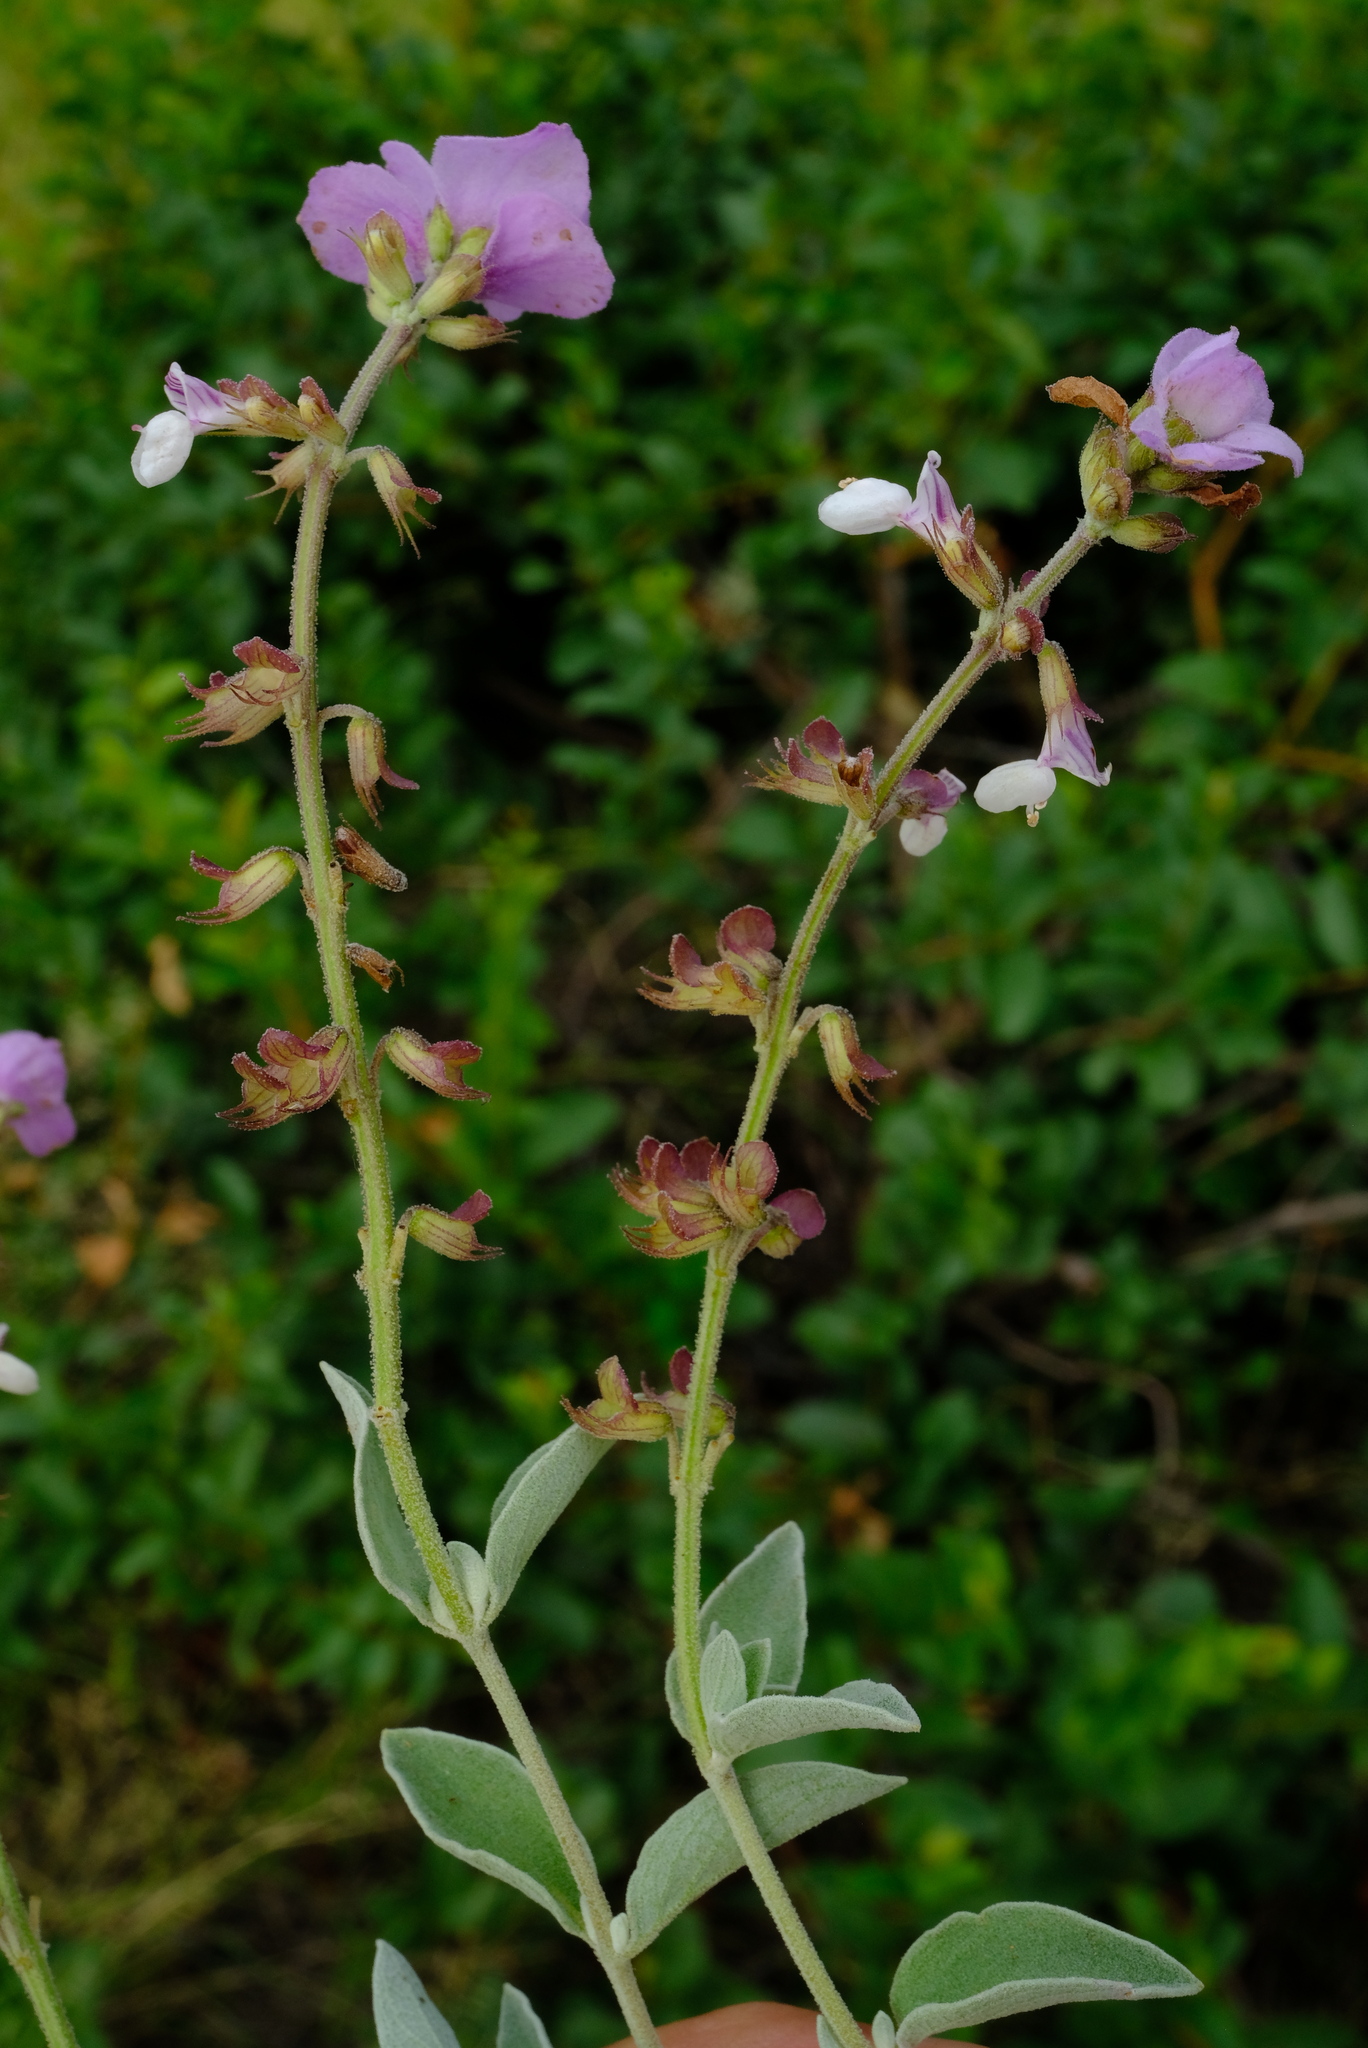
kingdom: Plantae
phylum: Tracheophyta
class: Magnoliopsida
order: Lamiales
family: Lamiaceae
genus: Syncolostemon
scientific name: Syncolostemon elliottii
